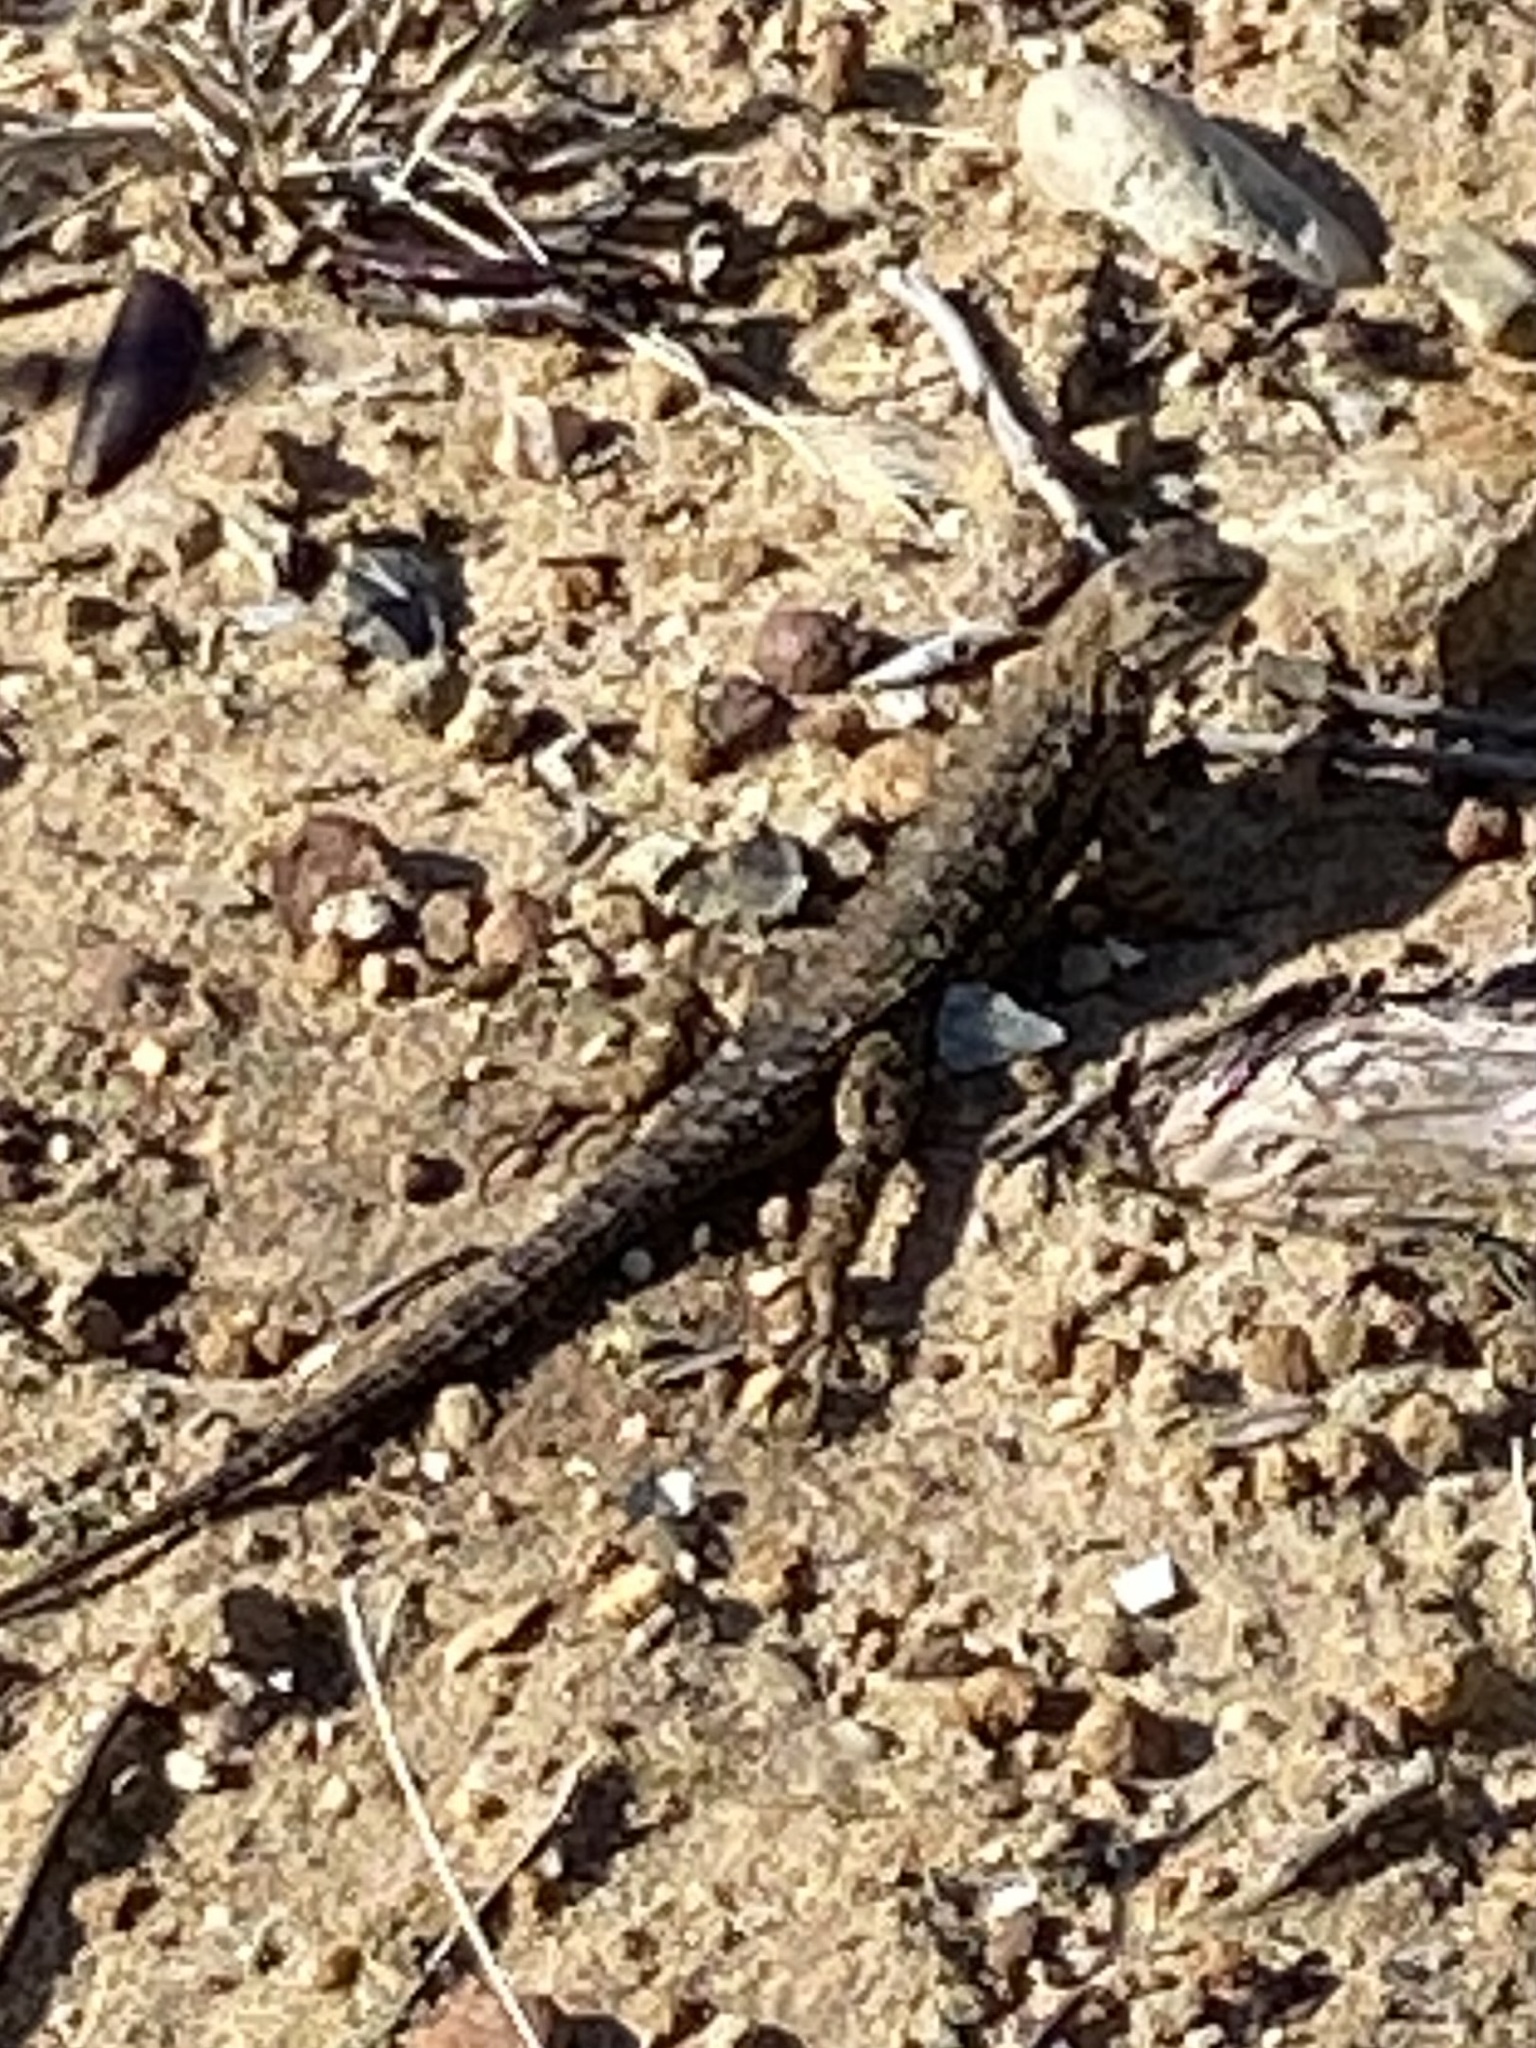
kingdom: Animalia
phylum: Chordata
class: Squamata
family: Phrynosomatidae
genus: Sceloporus
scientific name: Sceloporus occidentalis
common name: Western fence lizard
